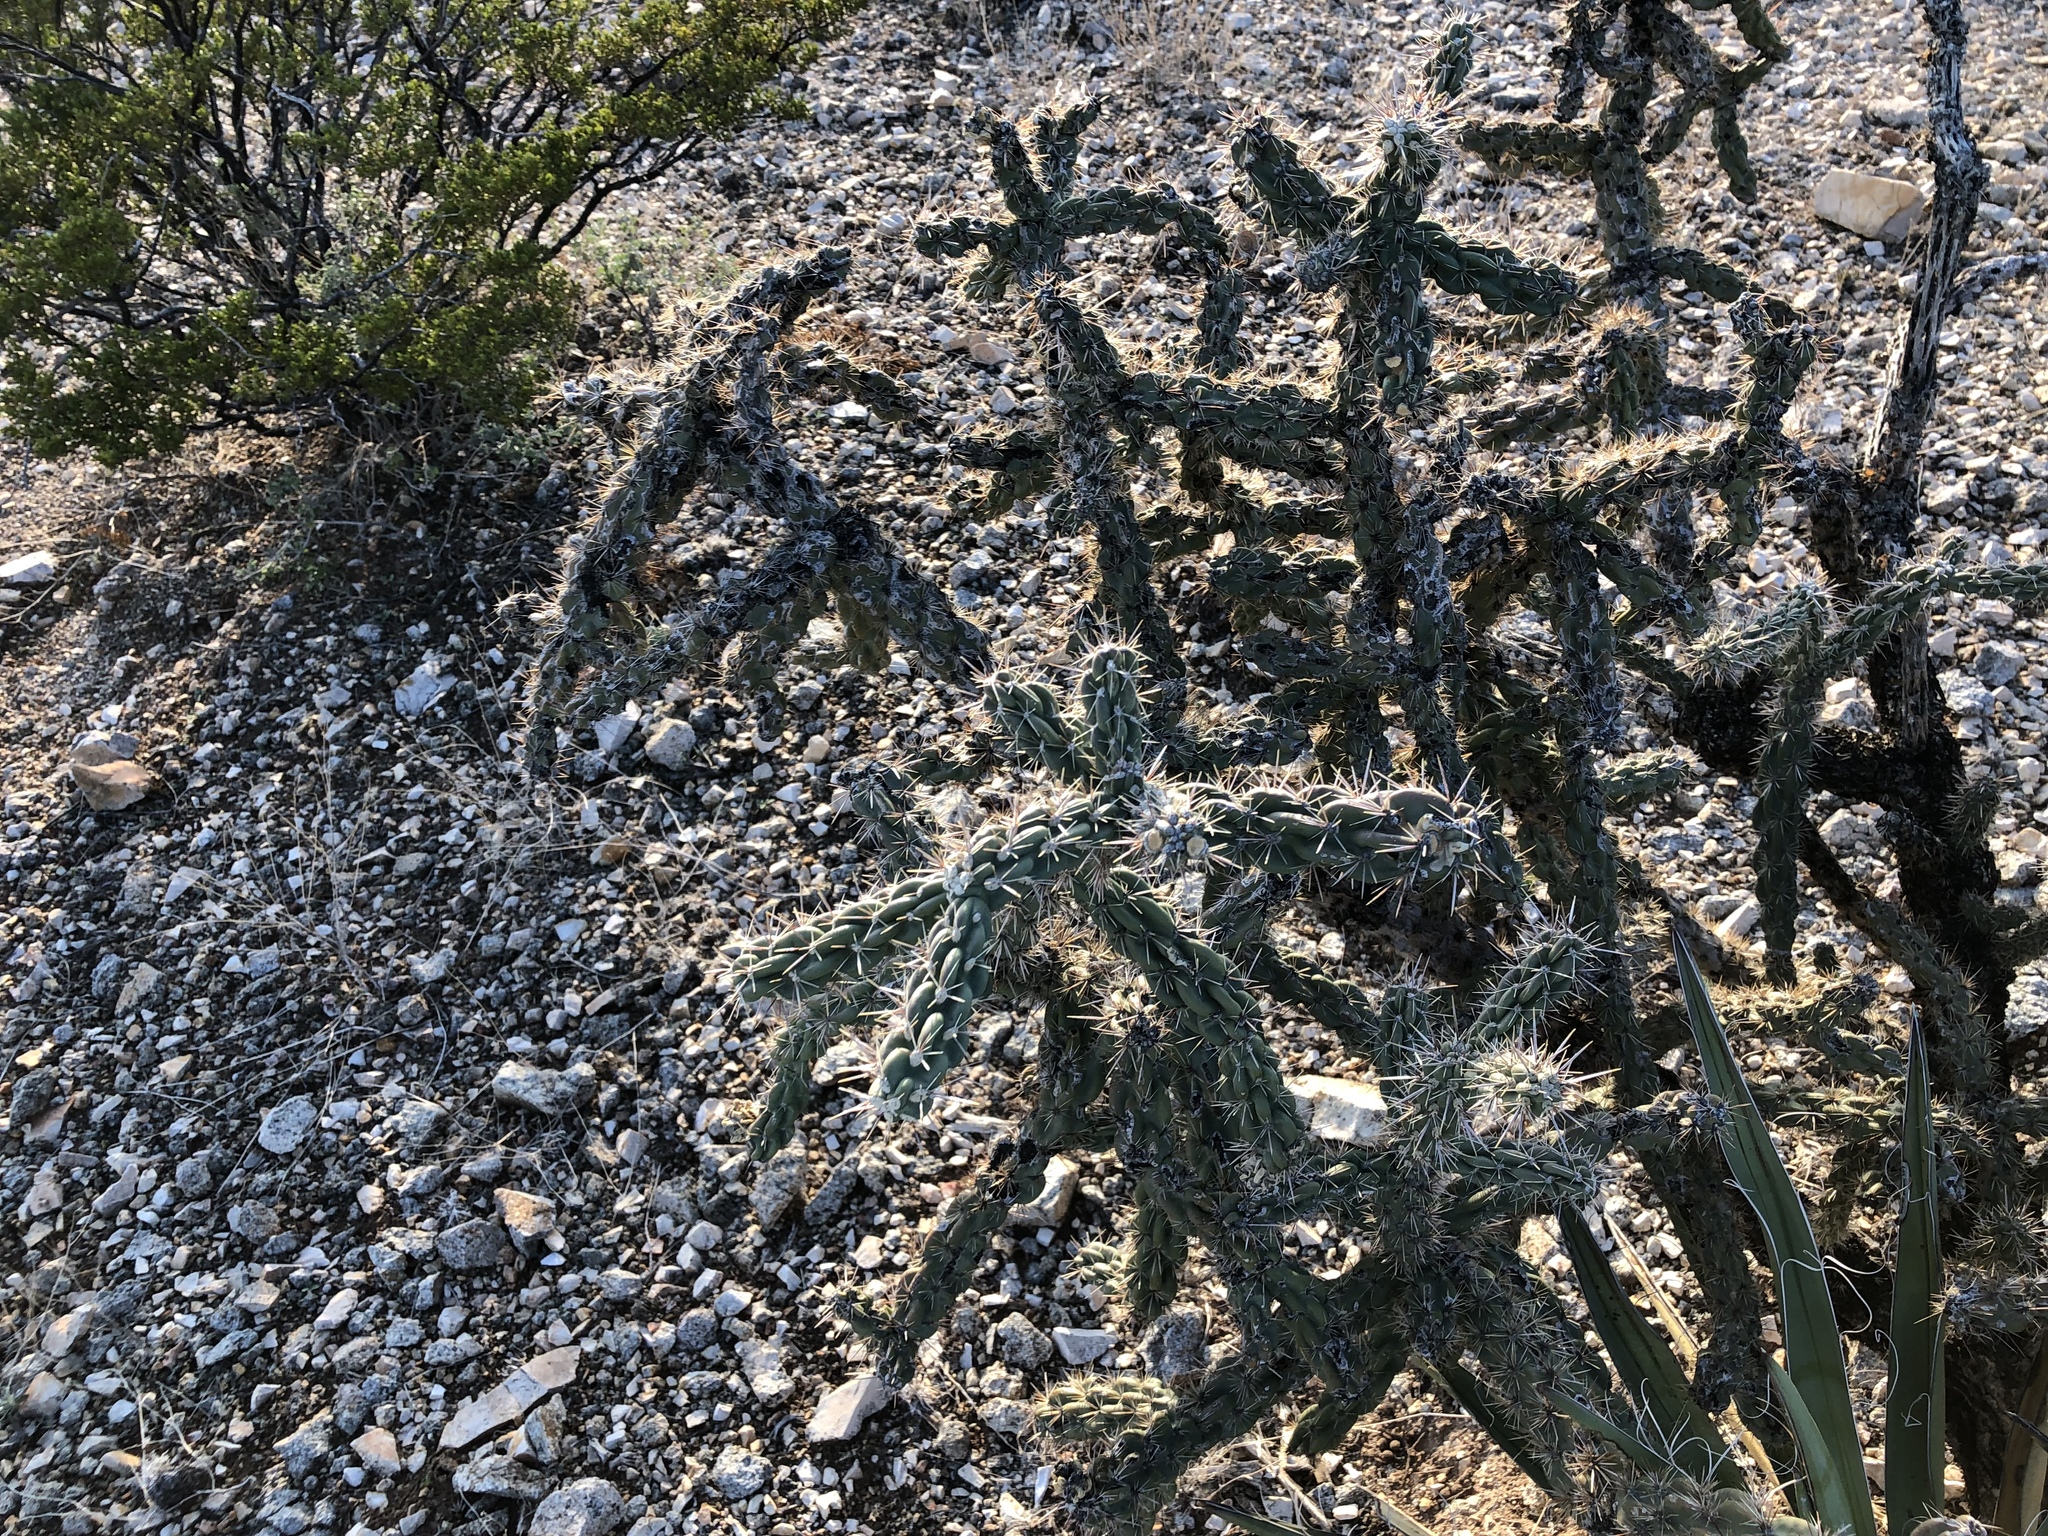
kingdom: Plantae
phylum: Tracheophyta
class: Magnoliopsida
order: Caryophyllales
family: Cactaceae
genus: Cylindropuntia
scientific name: Cylindropuntia imbricata
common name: Candelabrum cactus
